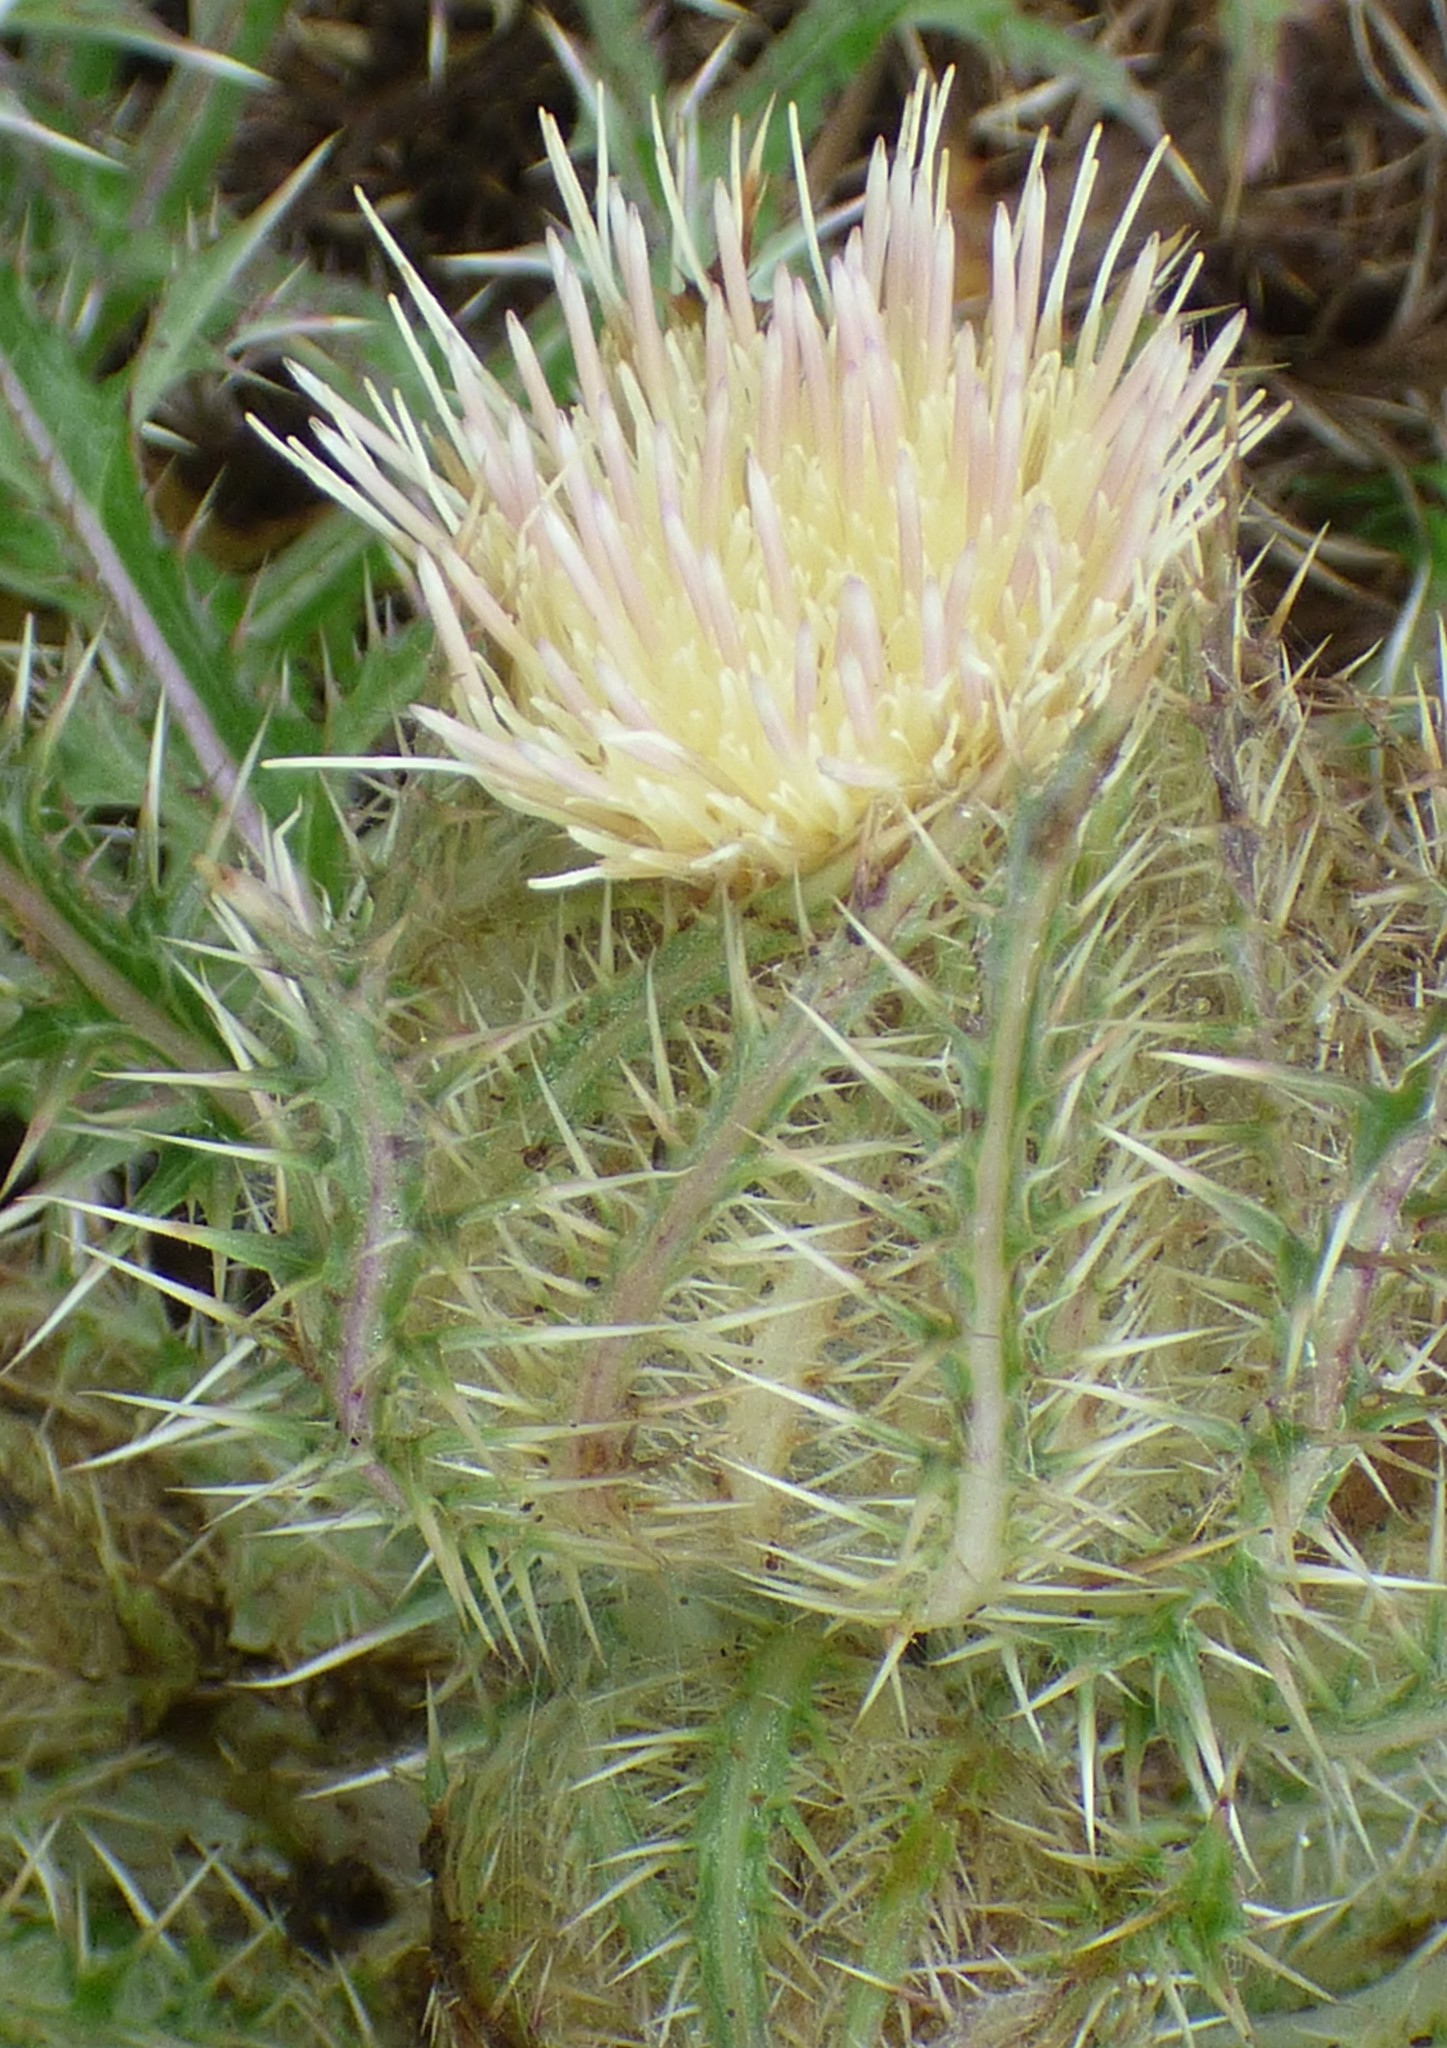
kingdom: Plantae
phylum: Tracheophyta
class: Magnoliopsida
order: Asterales
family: Asteraceae
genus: Cirsium
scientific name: Cirsium horridulum
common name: Bristly thistle
